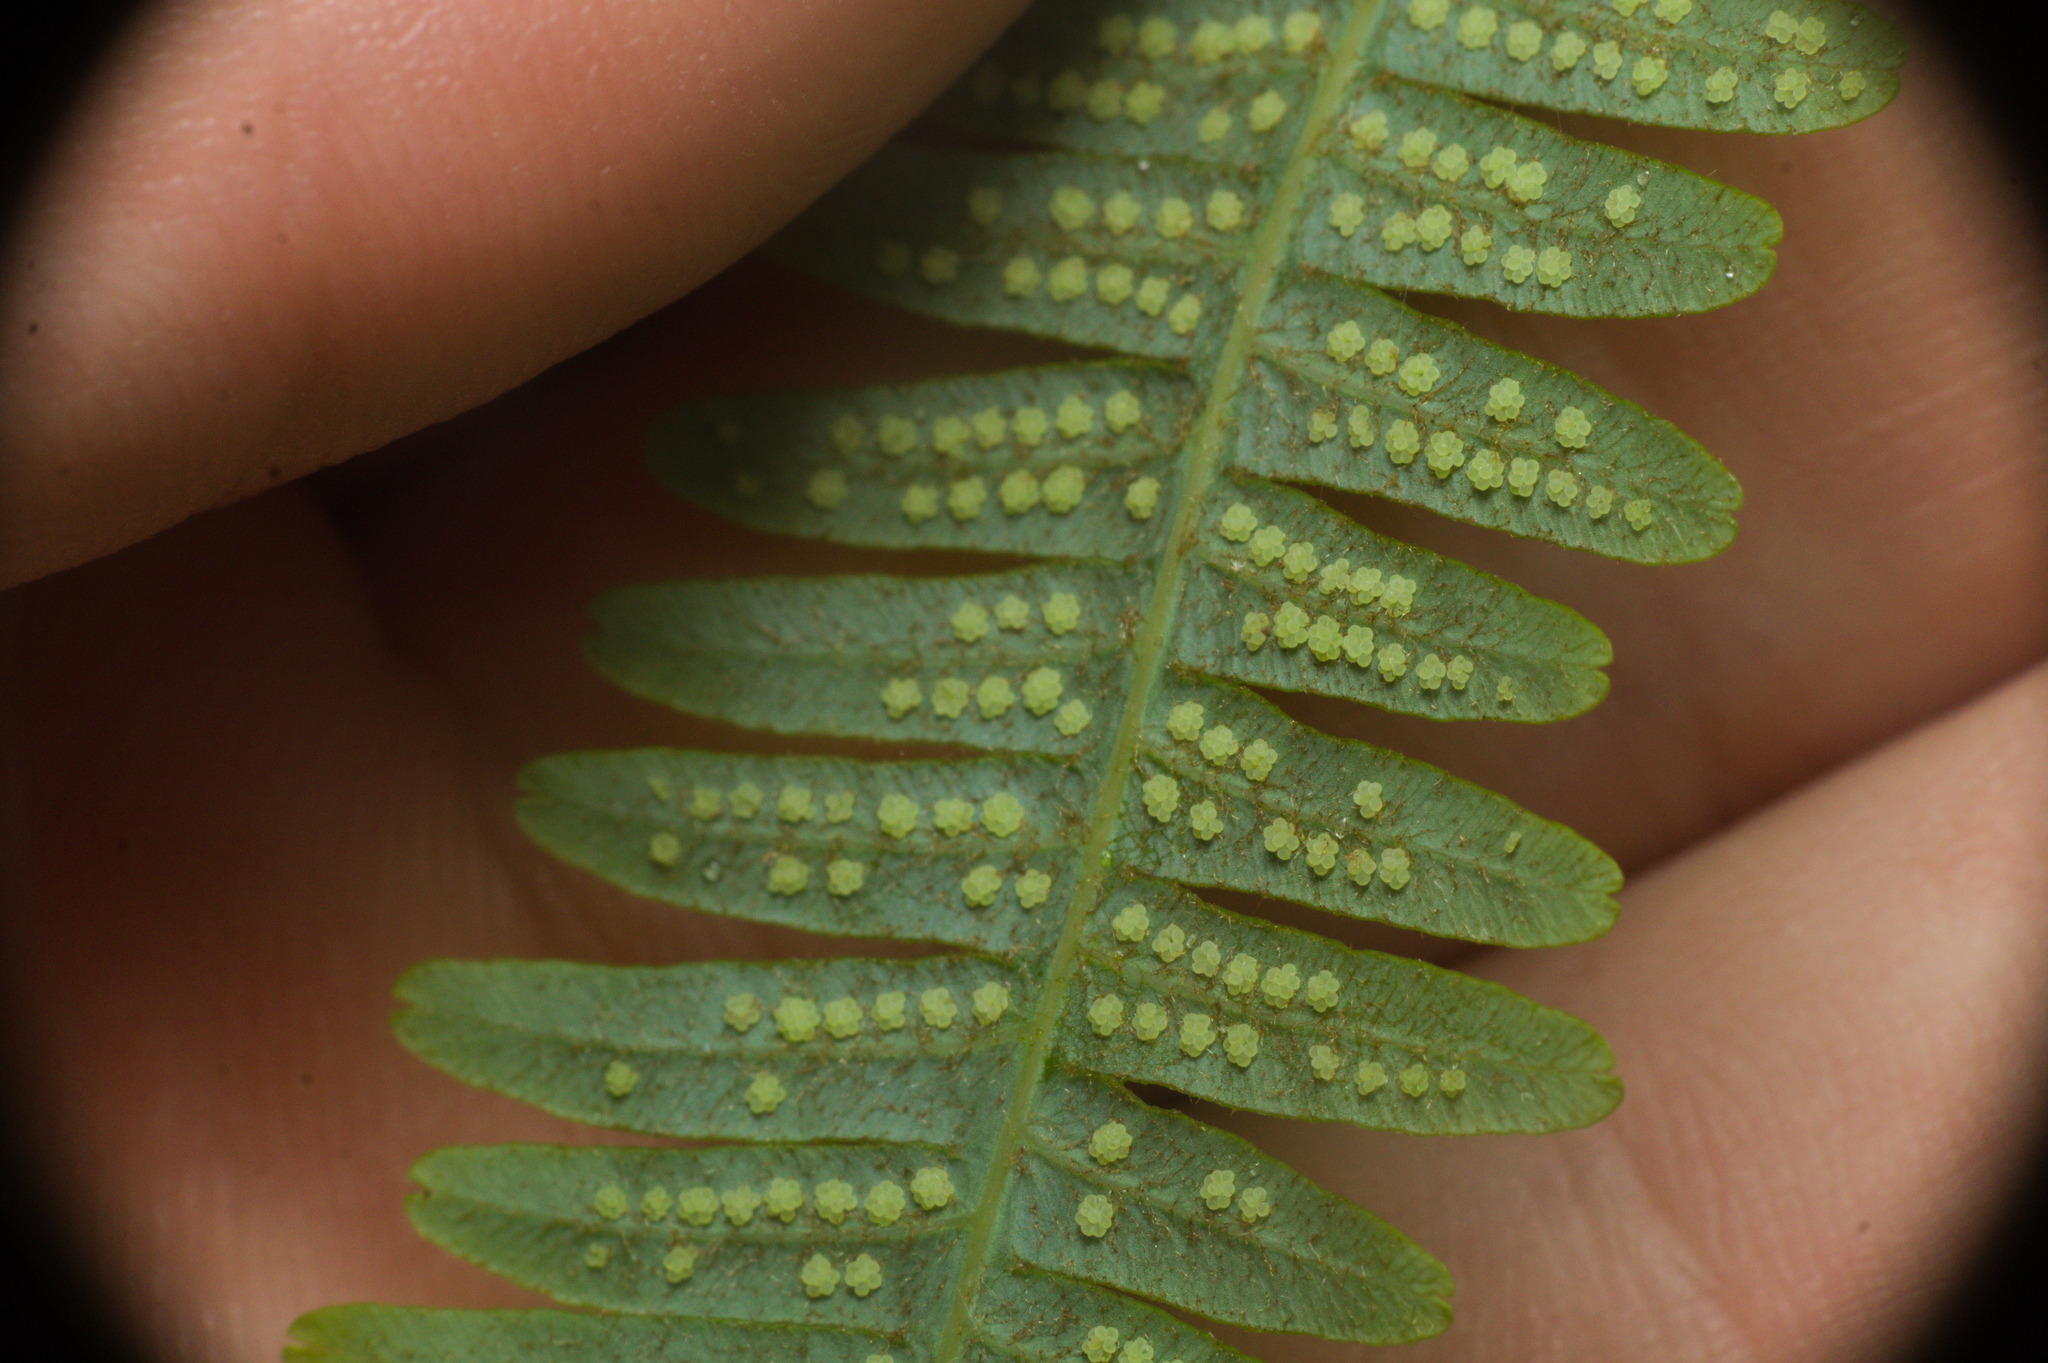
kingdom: Plantae
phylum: Tracheophyta
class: Polypodiopsida
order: Gleicheniales
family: Gleicheniaceae
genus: Gleichenella
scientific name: Gleichenella pectinata
